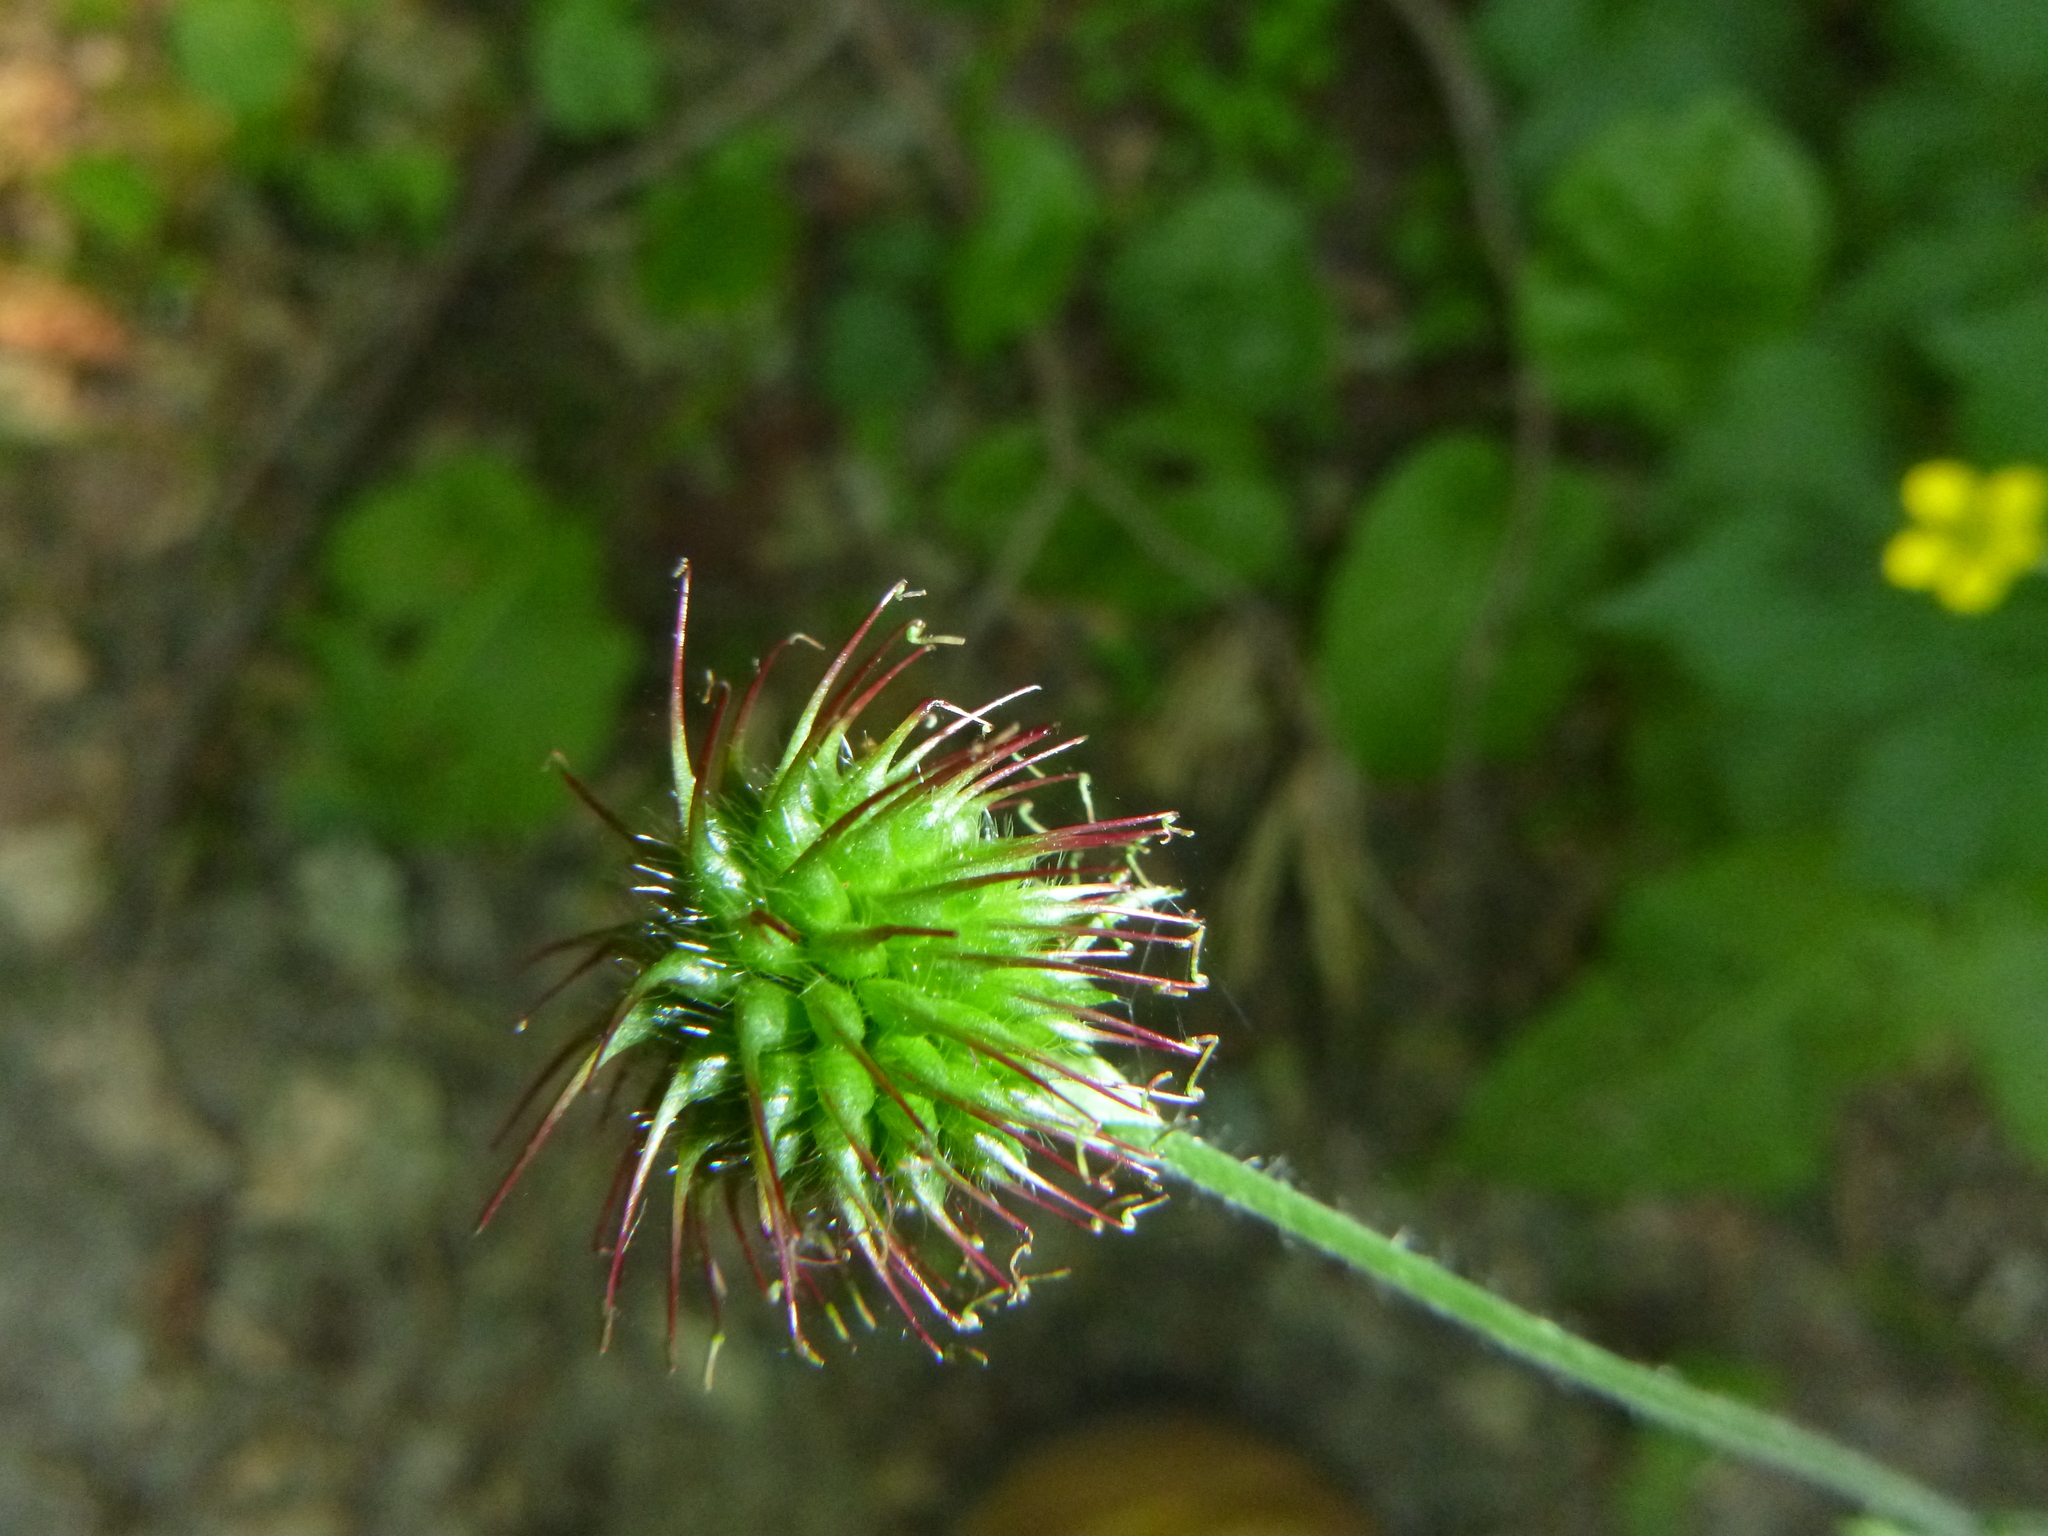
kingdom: Plantae
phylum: Tracheophyta
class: Magnoliopsida
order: Rosales
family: Rosaceae
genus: Geum
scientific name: Geum urbanum
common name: Wood avens
